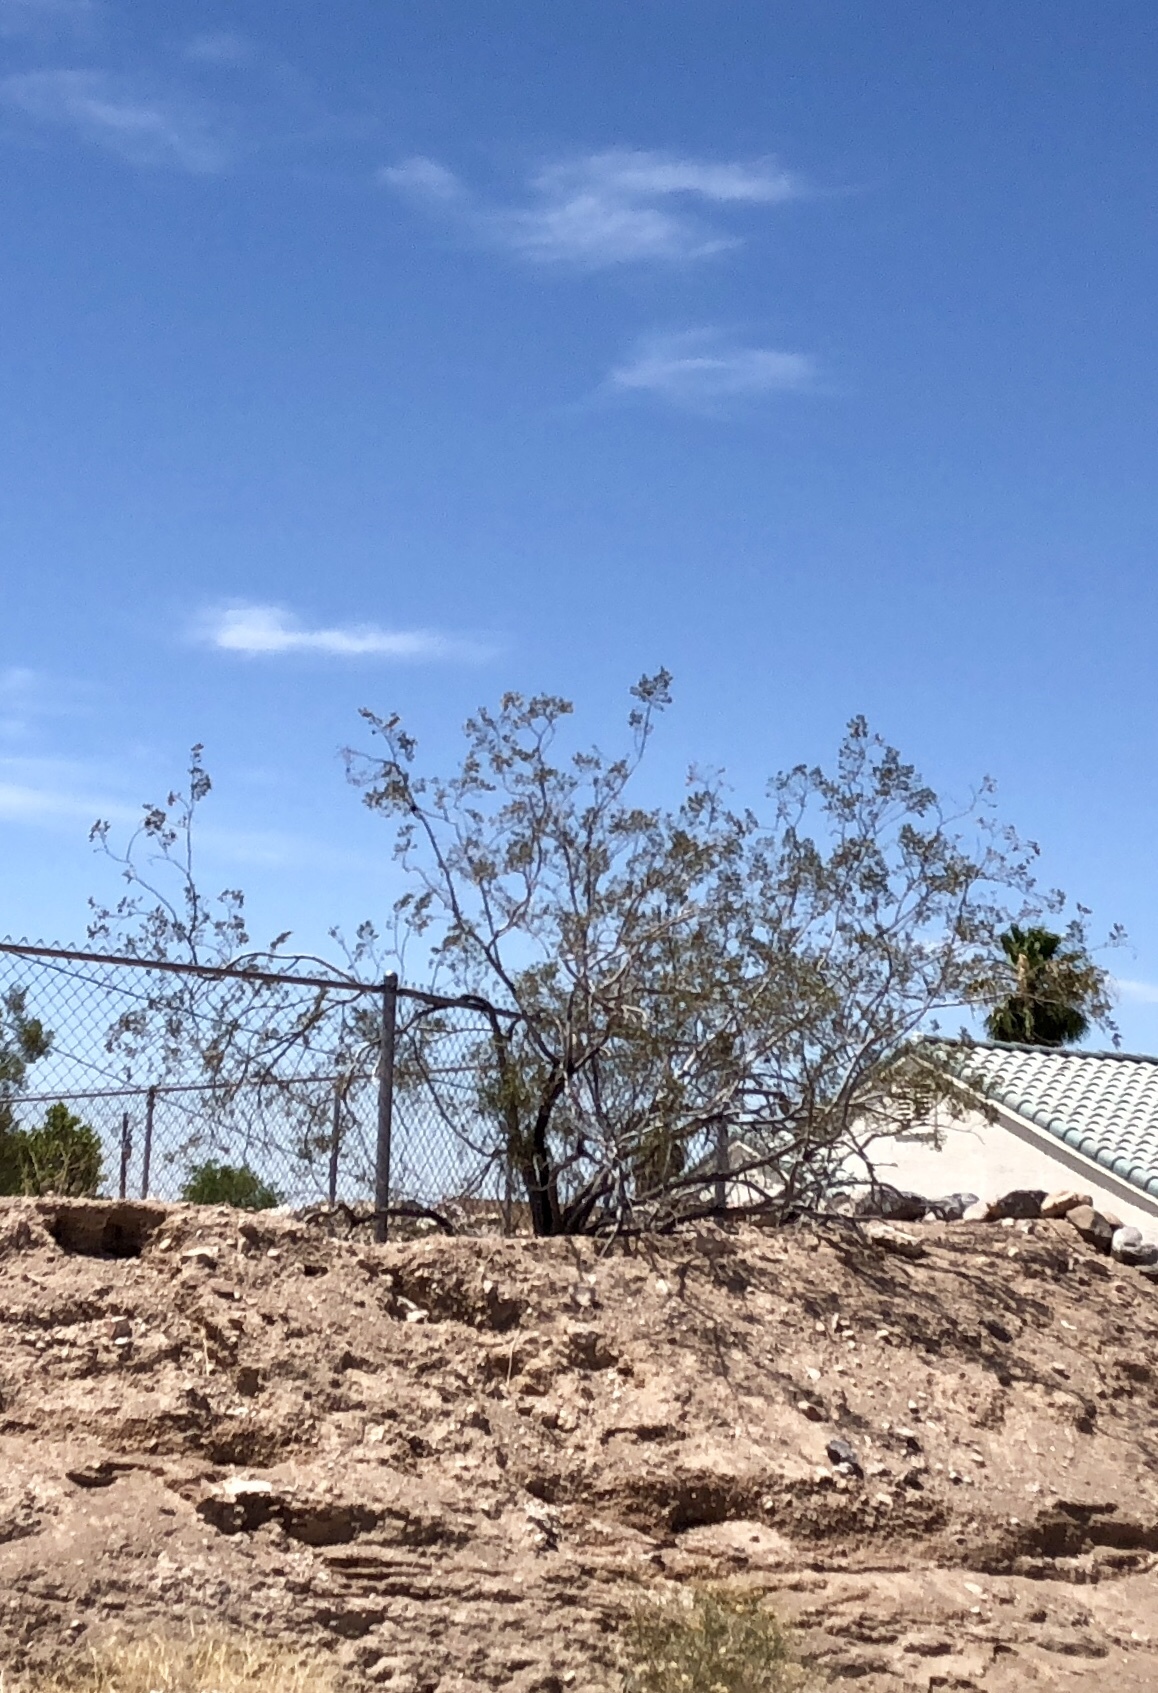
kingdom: Plantae
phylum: Tracheophyta
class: Magnoliopsida
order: Zygophyllales
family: Zygophyllaceae
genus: Larrea
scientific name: Larrea tridentata
